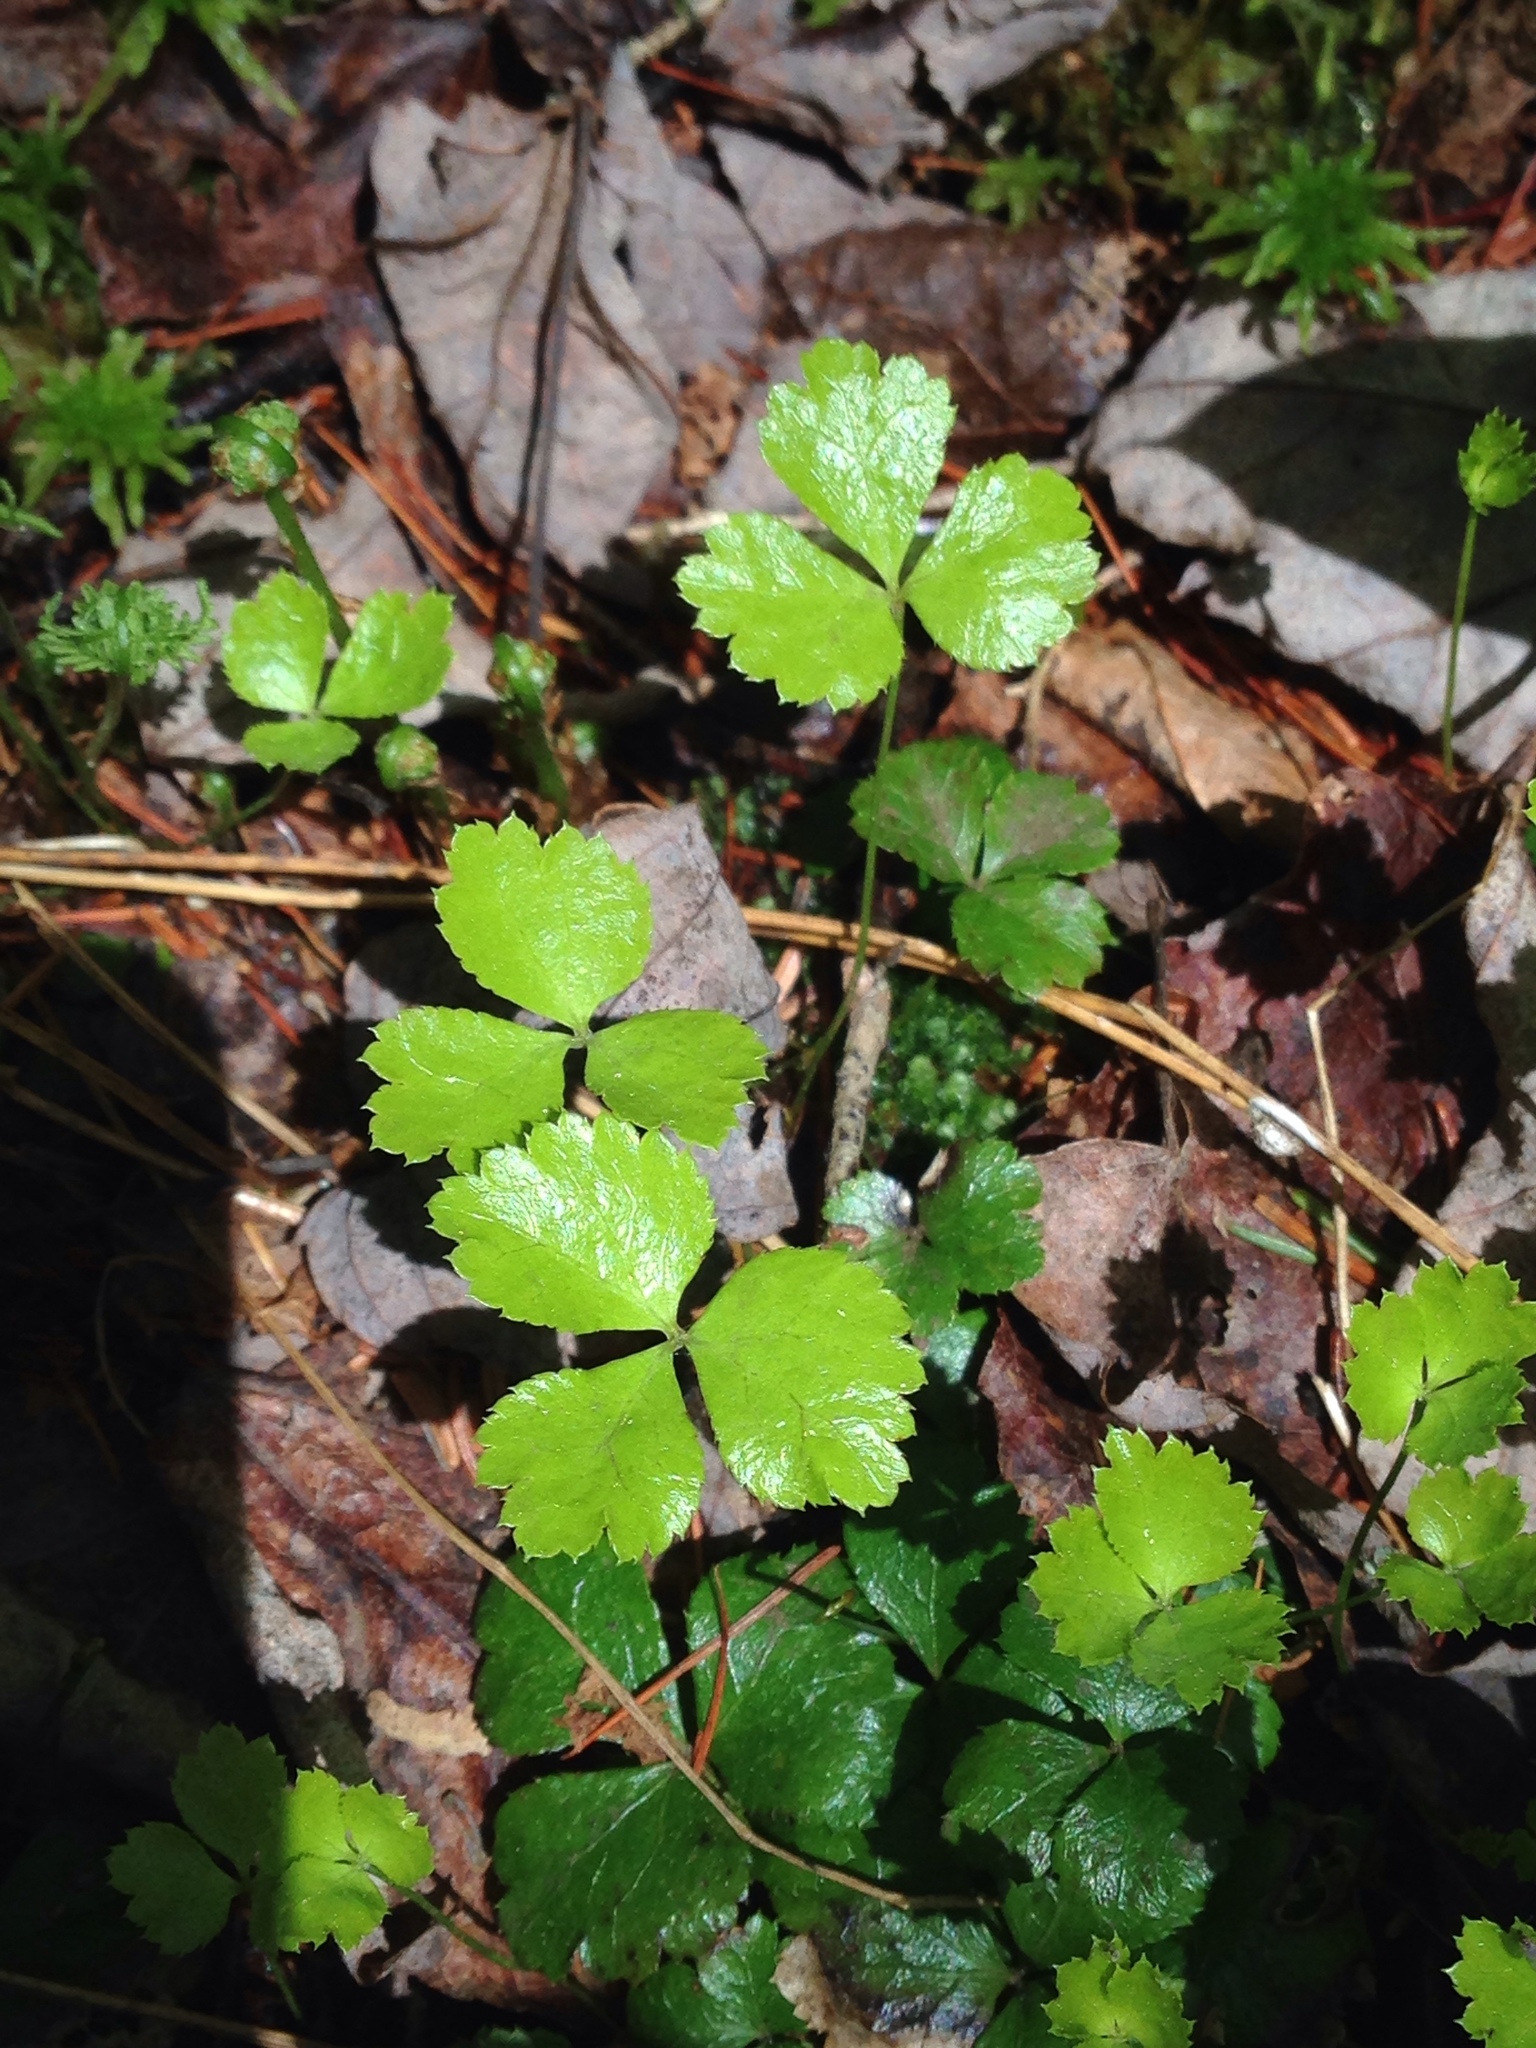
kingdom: Plantae
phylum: Tracheophyta
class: Magnoliopsida
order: Ranunculales
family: Ranunculaceae
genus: Coptis
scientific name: Coptis trifolia
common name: Canker-root
